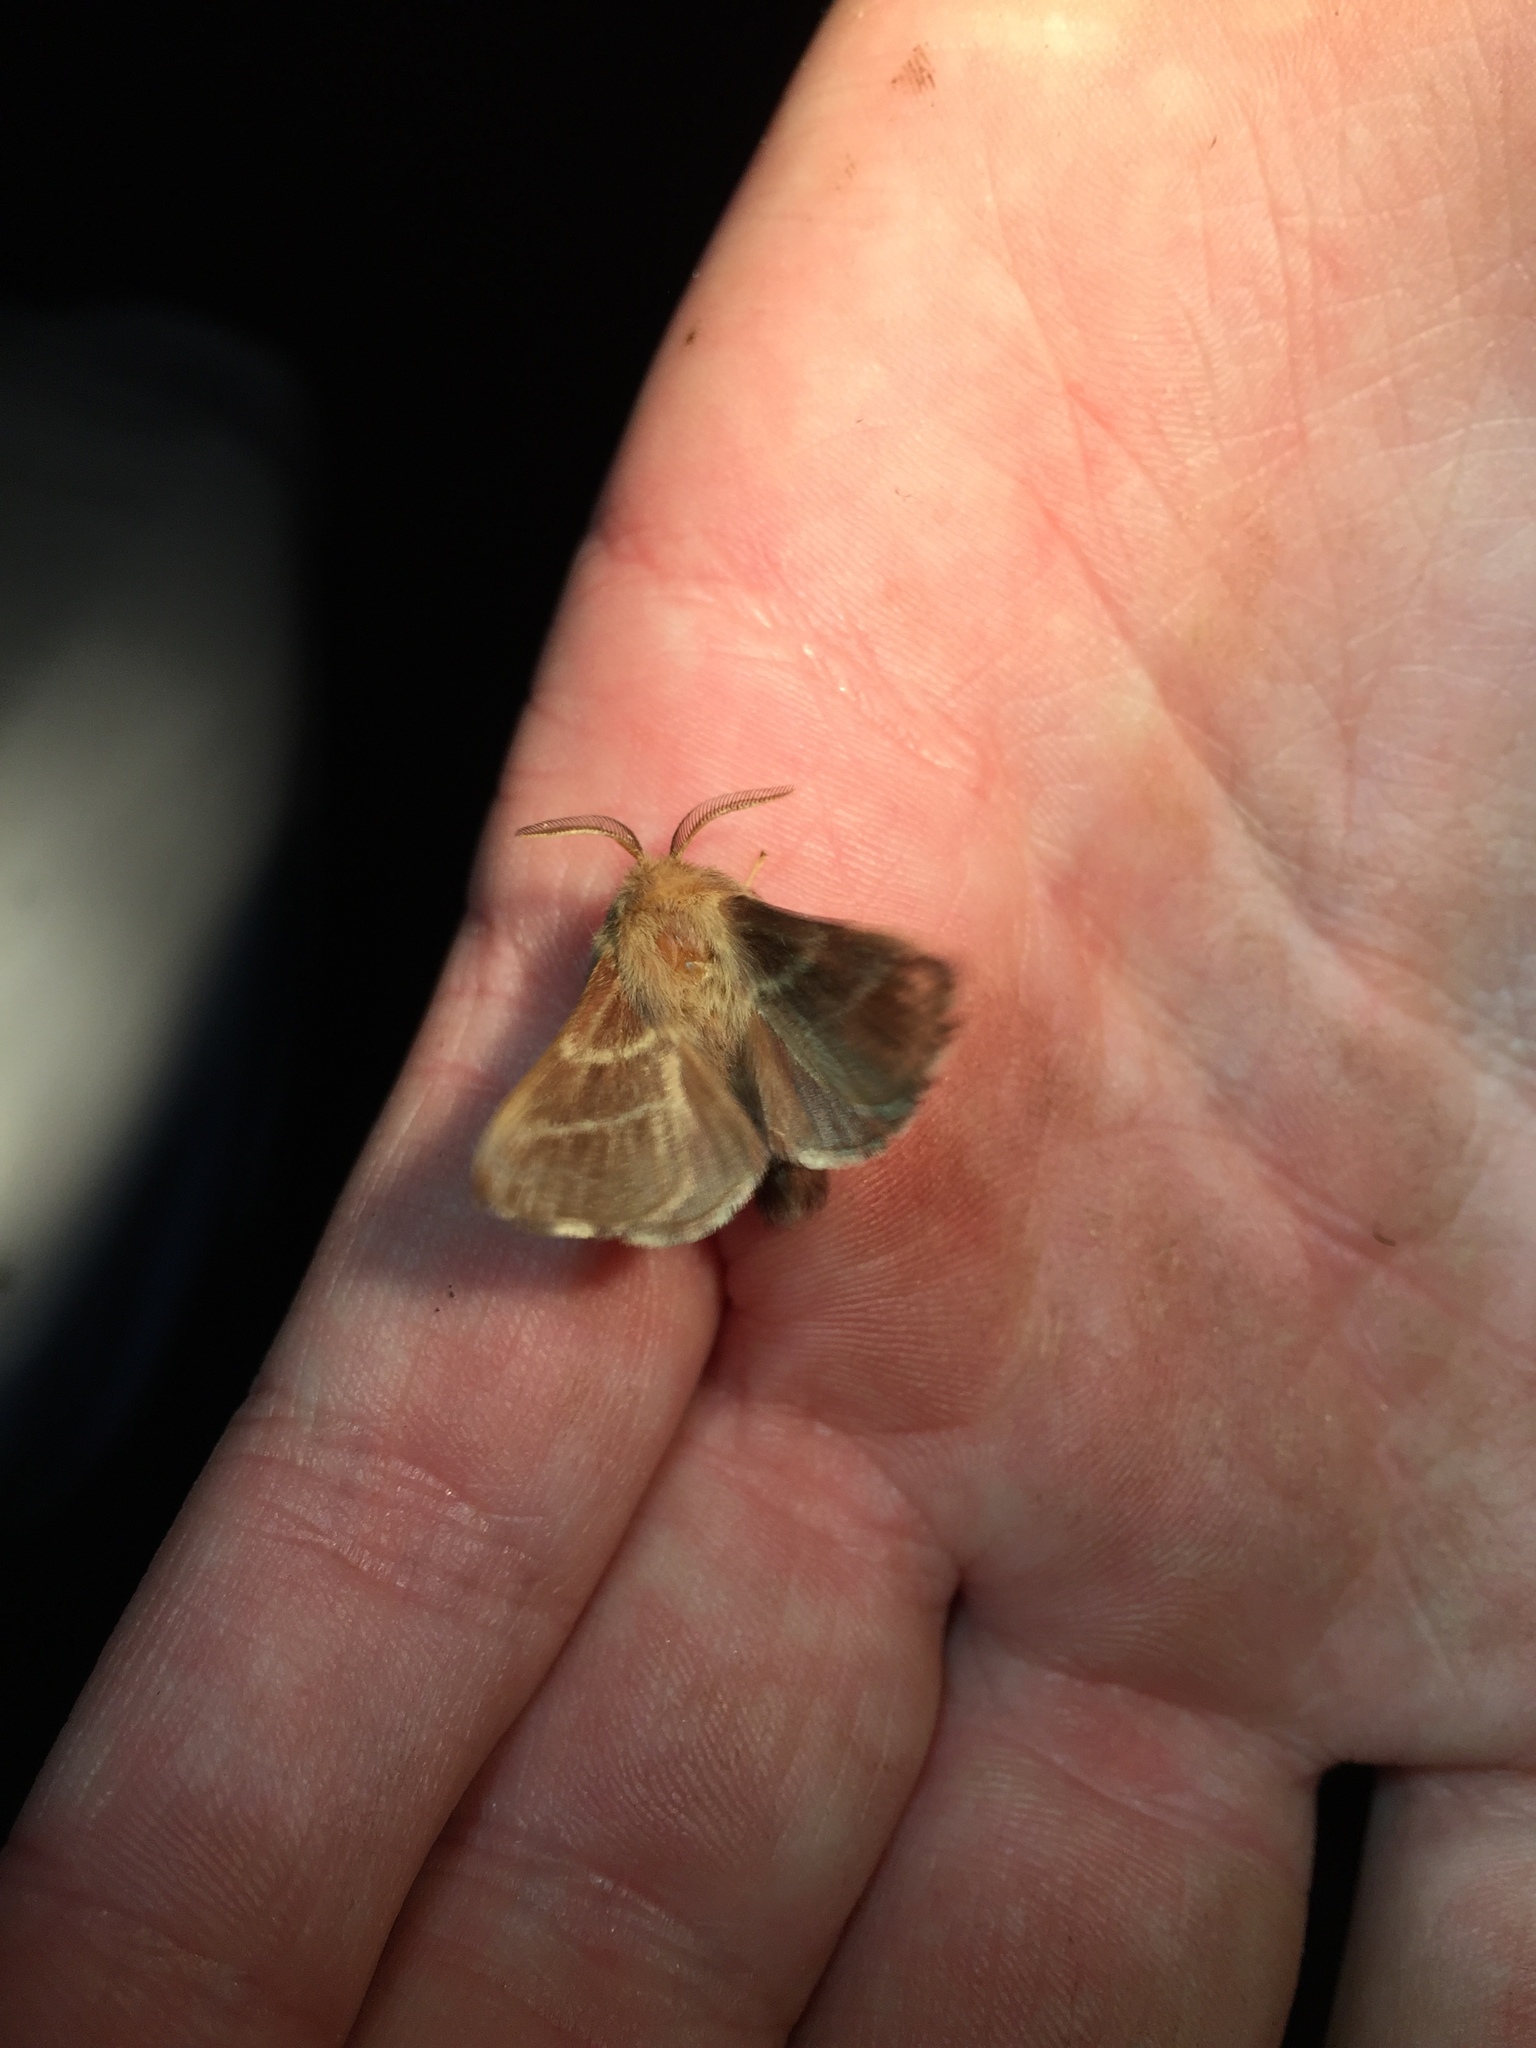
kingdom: Animalia
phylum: Arthropoda
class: Insecta
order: Lepidoptera
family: Lasiocampidae
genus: Malacosoma
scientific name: Malacosoma americana
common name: Eastern tent caterpillar moth
